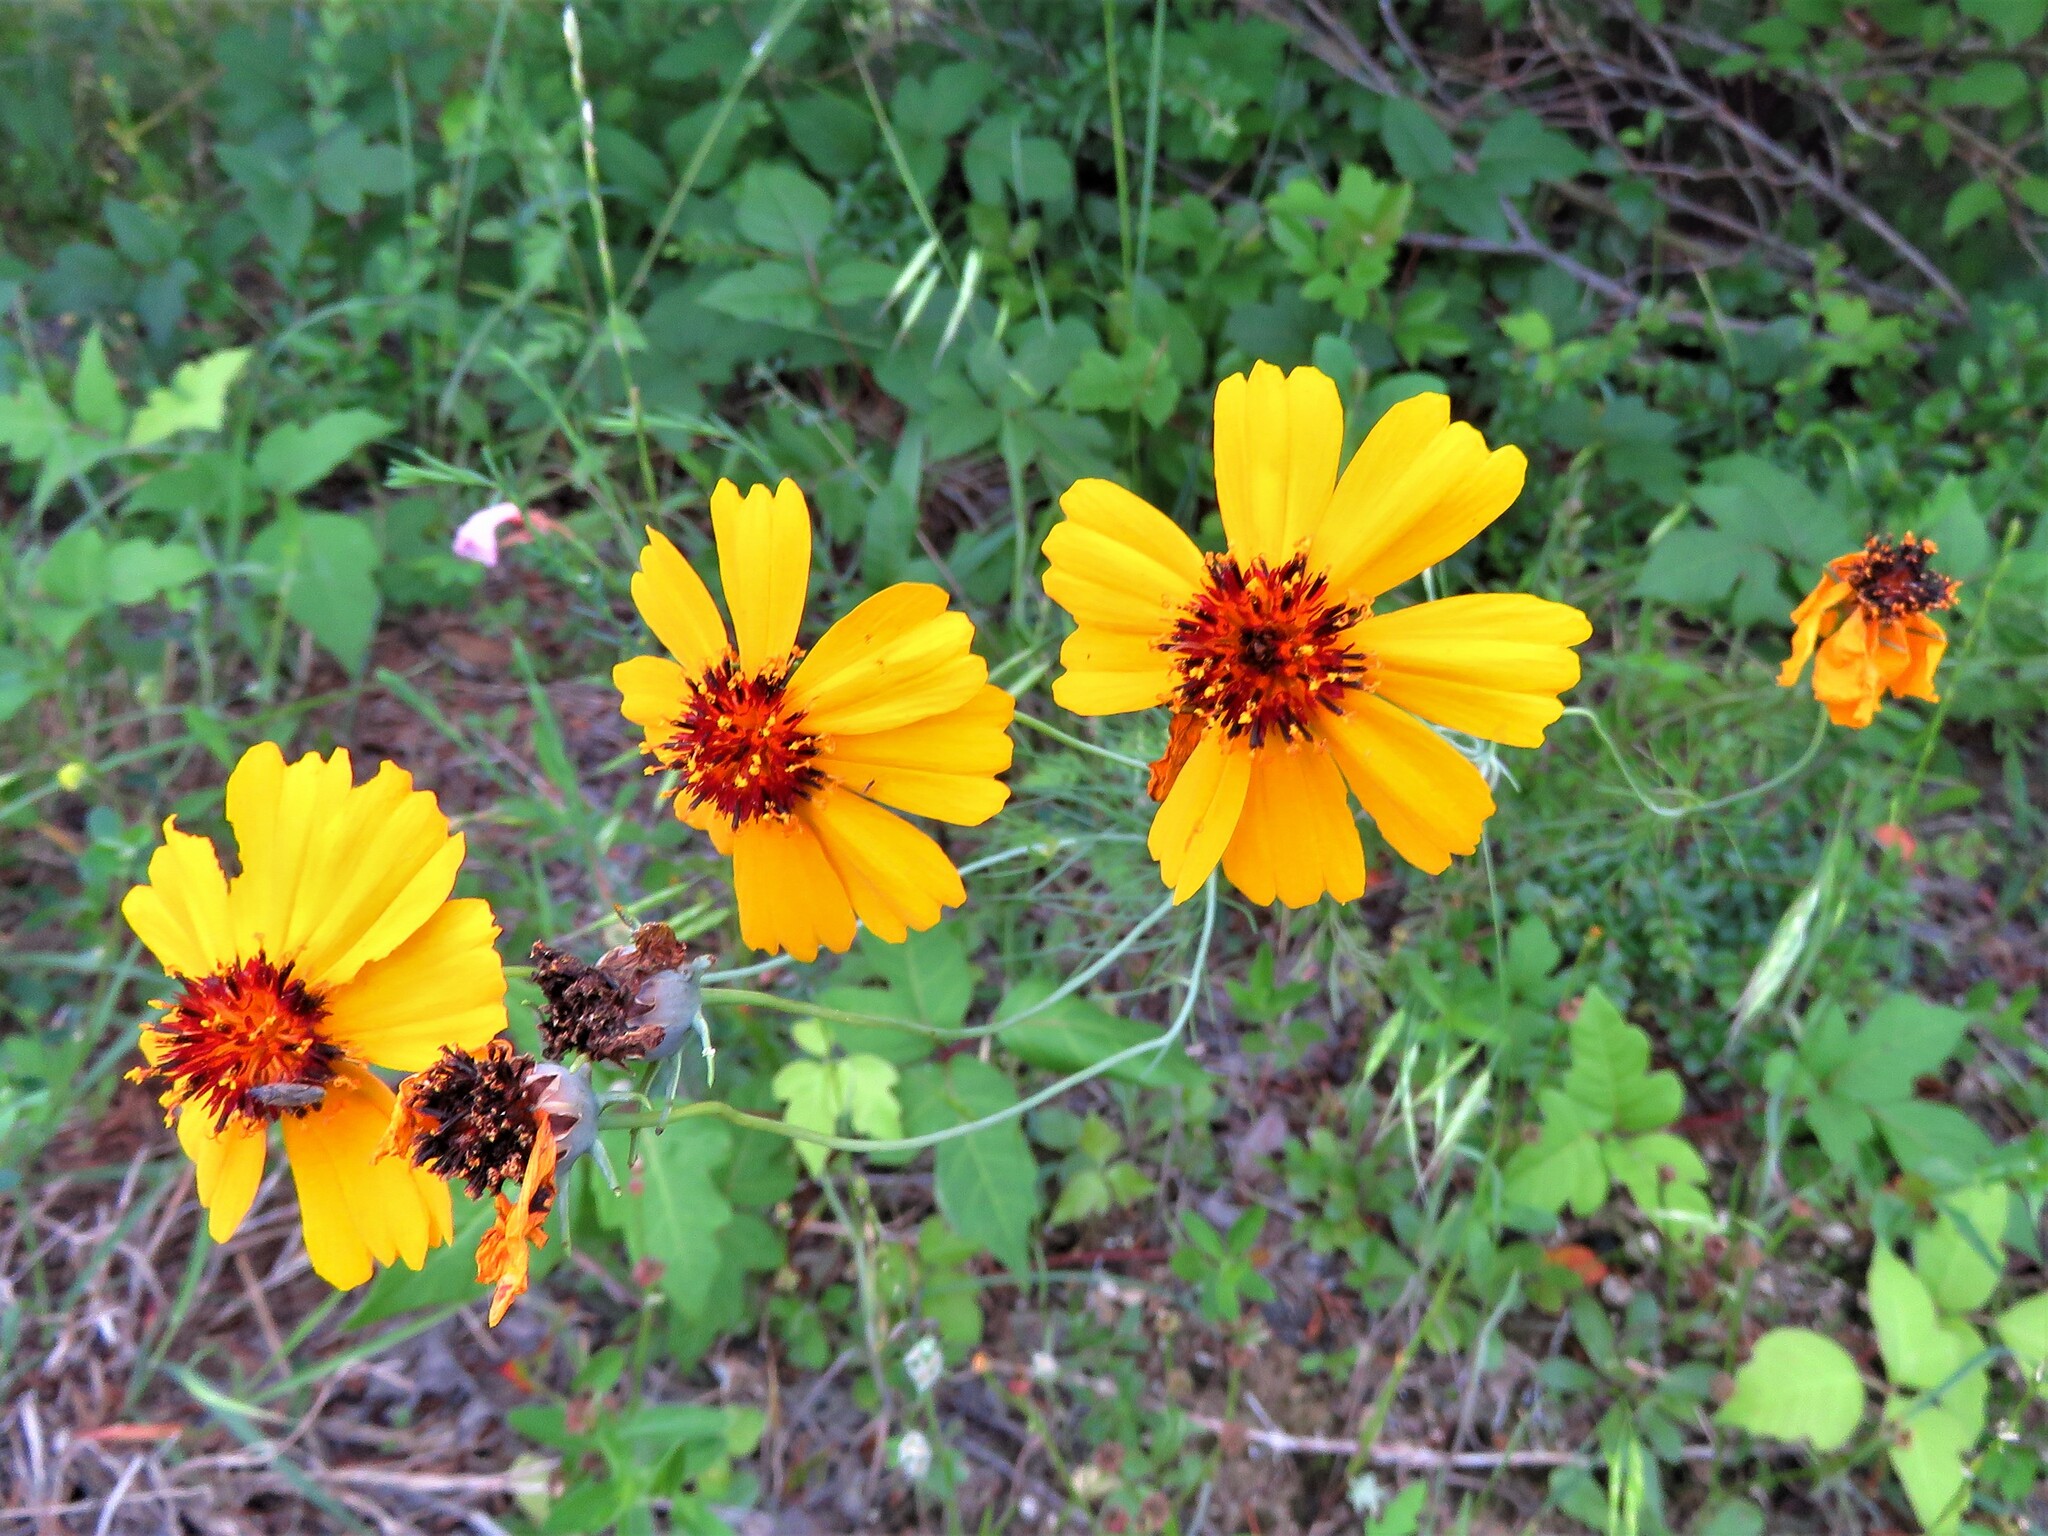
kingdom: Plantae
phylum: Tracheophyta
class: Magnoliopsida
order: Asterales
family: Asteraceae
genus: Thelesperma
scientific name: Thelesperma filifolium
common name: Stiff greenthread
